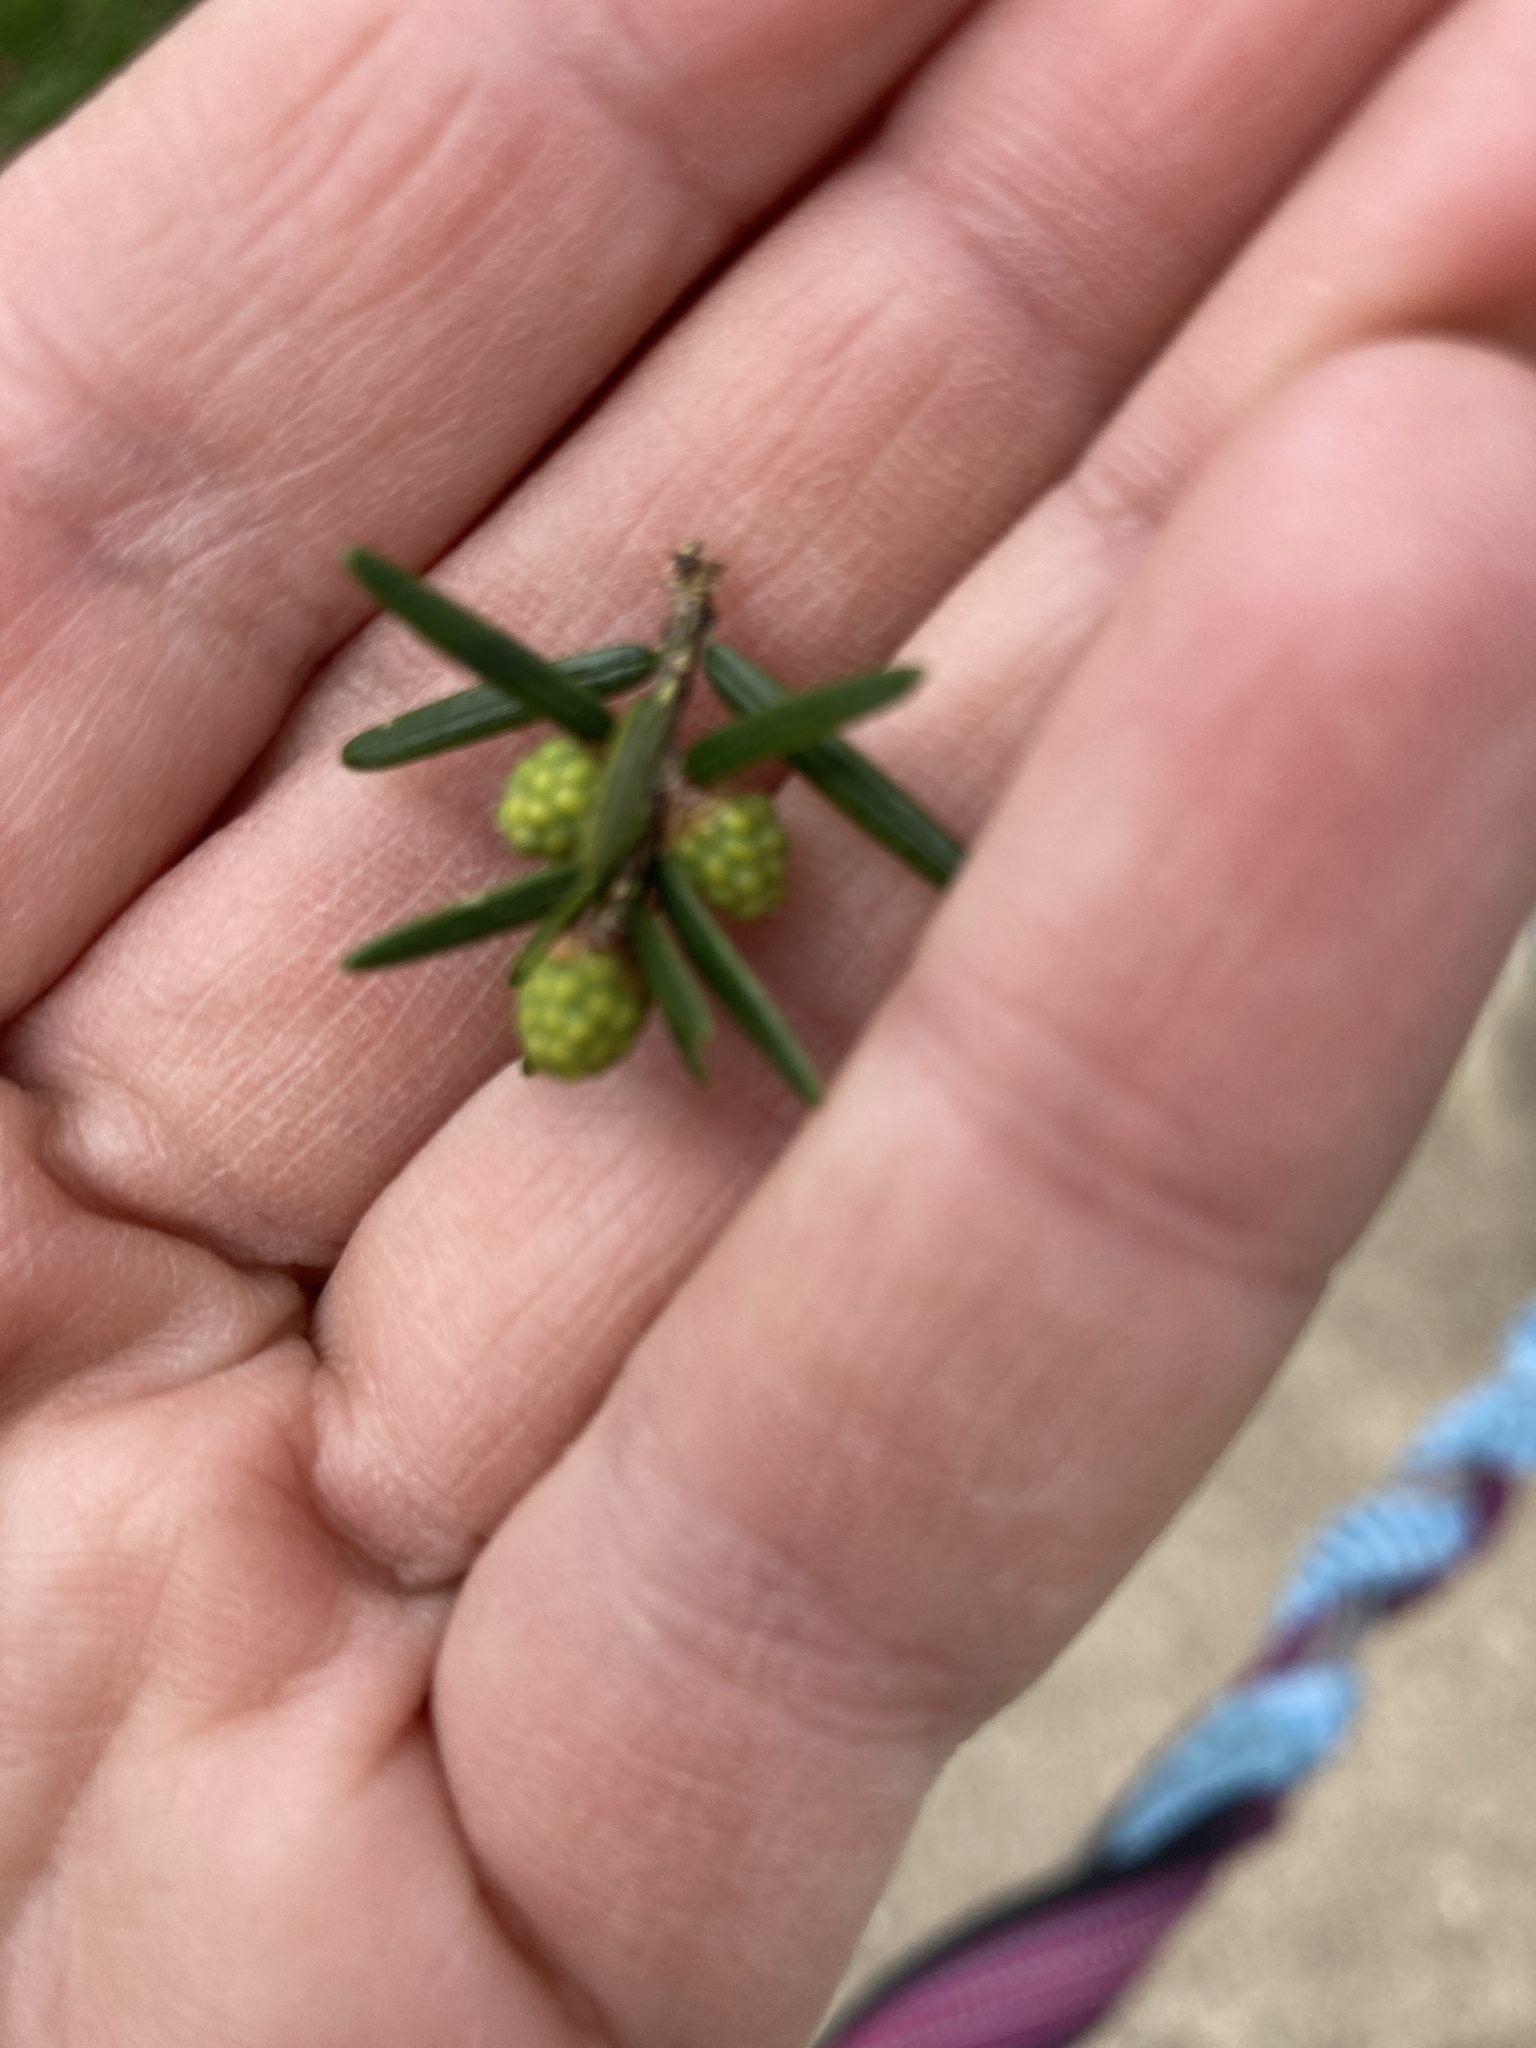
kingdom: Plantae
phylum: Tracheophyta
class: Pinopsida
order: Pinales
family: Pinaceae
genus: Tsuga
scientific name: Tsuga canadensis
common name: Eastern hemlock
